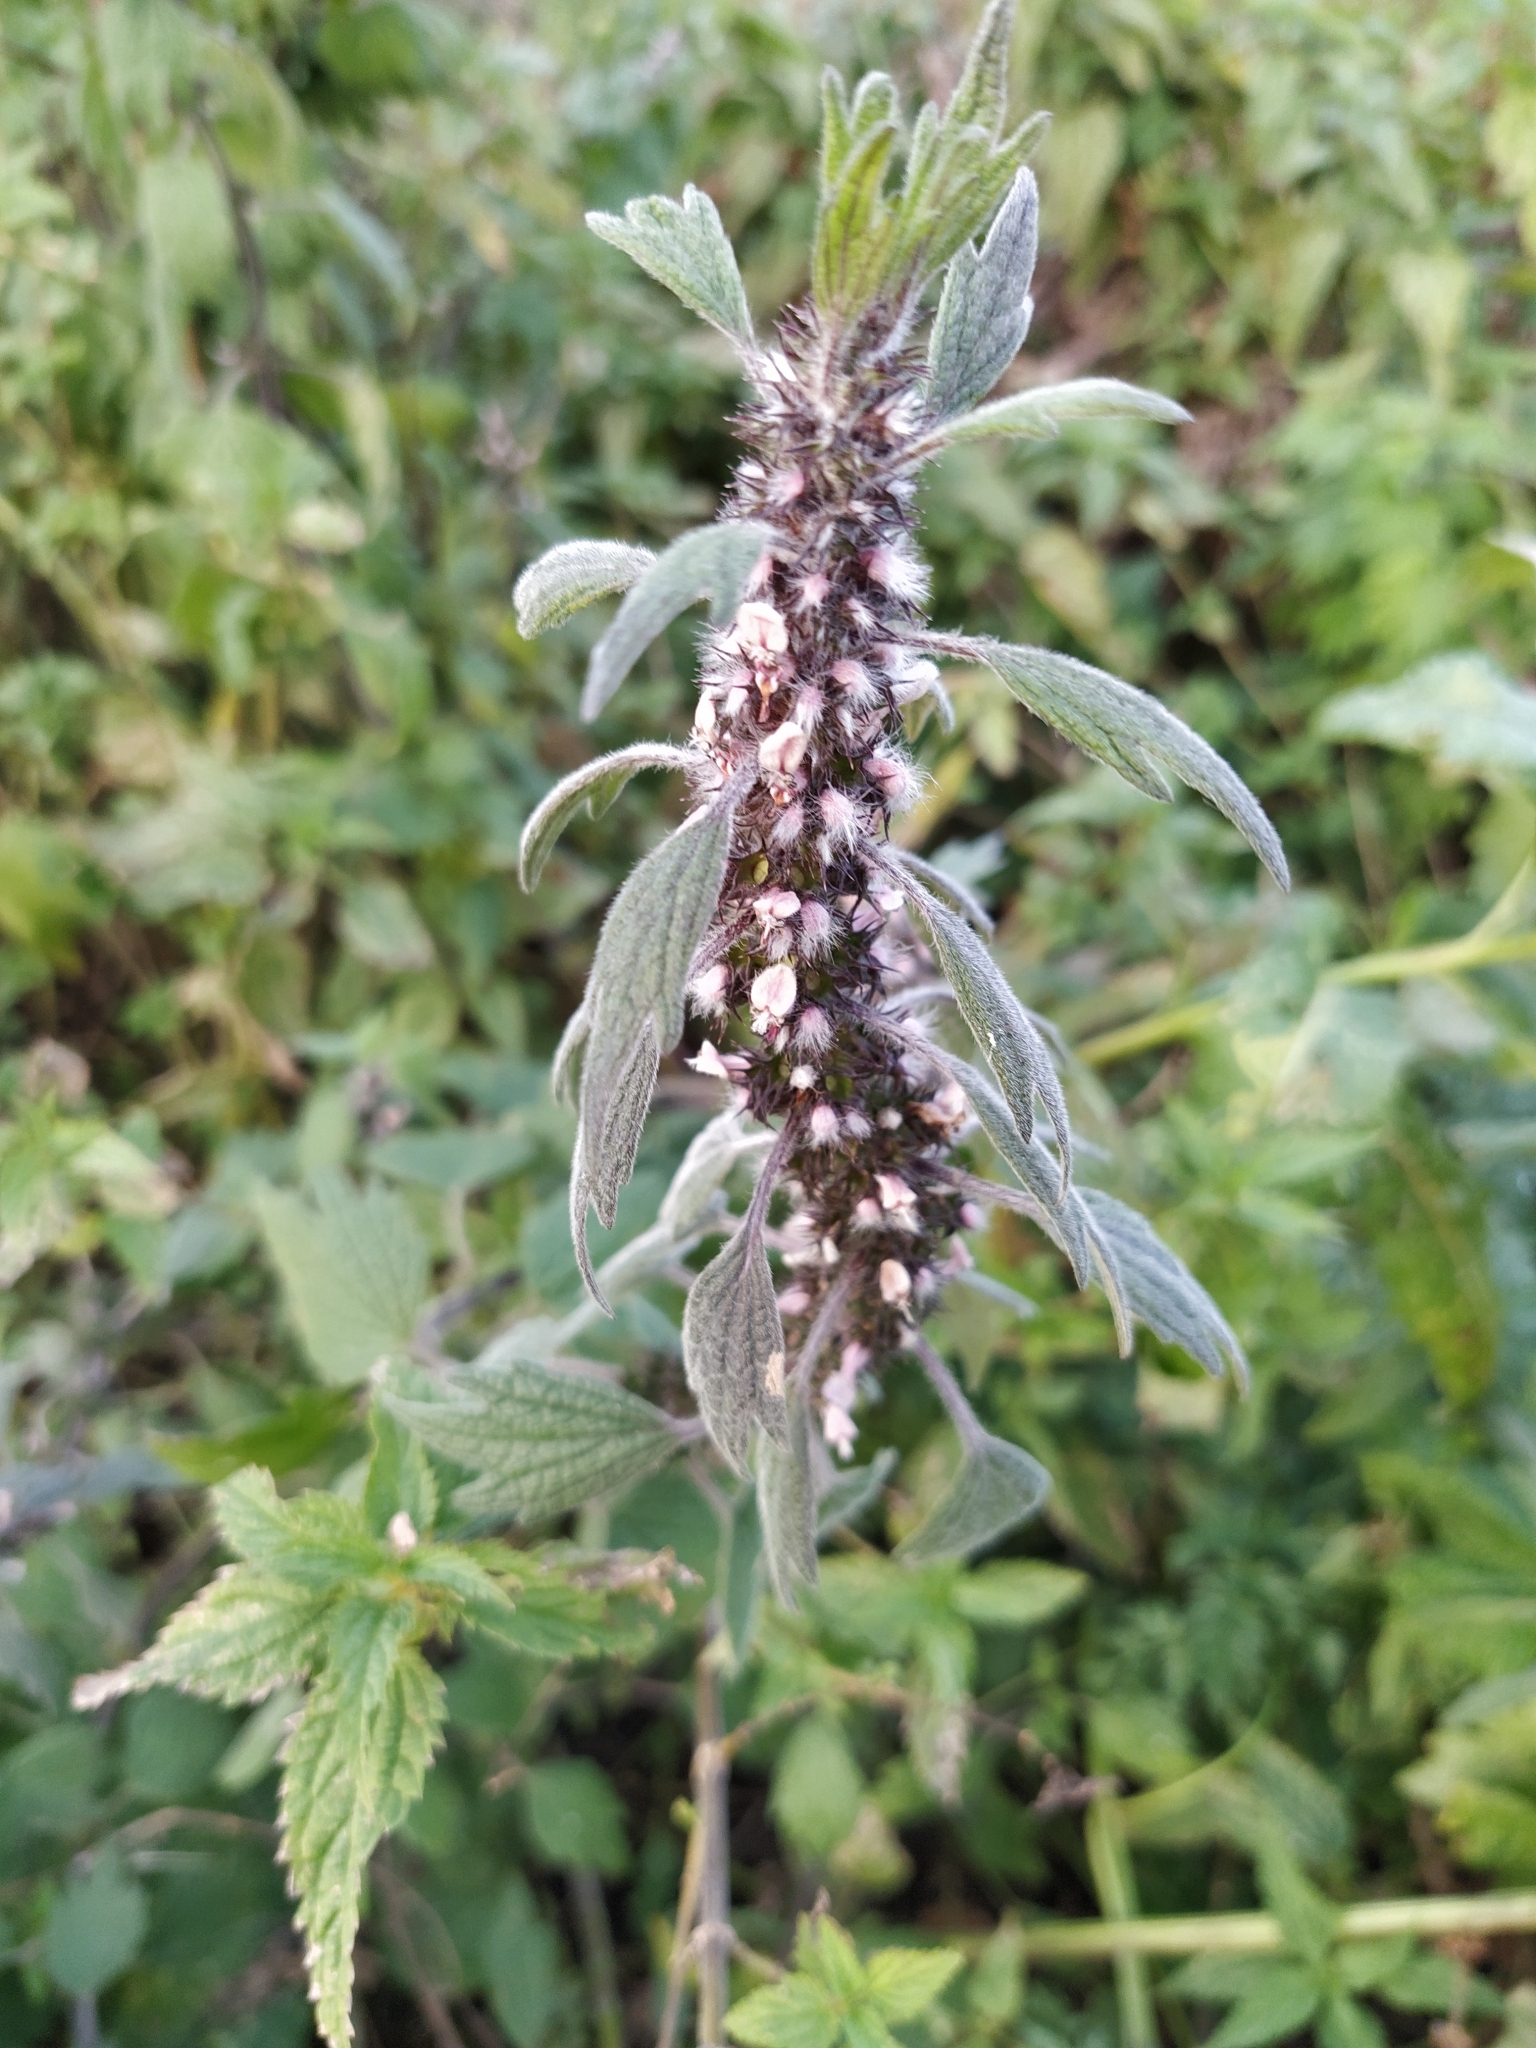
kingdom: Plantae
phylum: Tracheophyta
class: Magnoliopsida
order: Lamiales
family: Lamiaceae
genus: Leonurus
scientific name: Leonurus quinquelobatus
